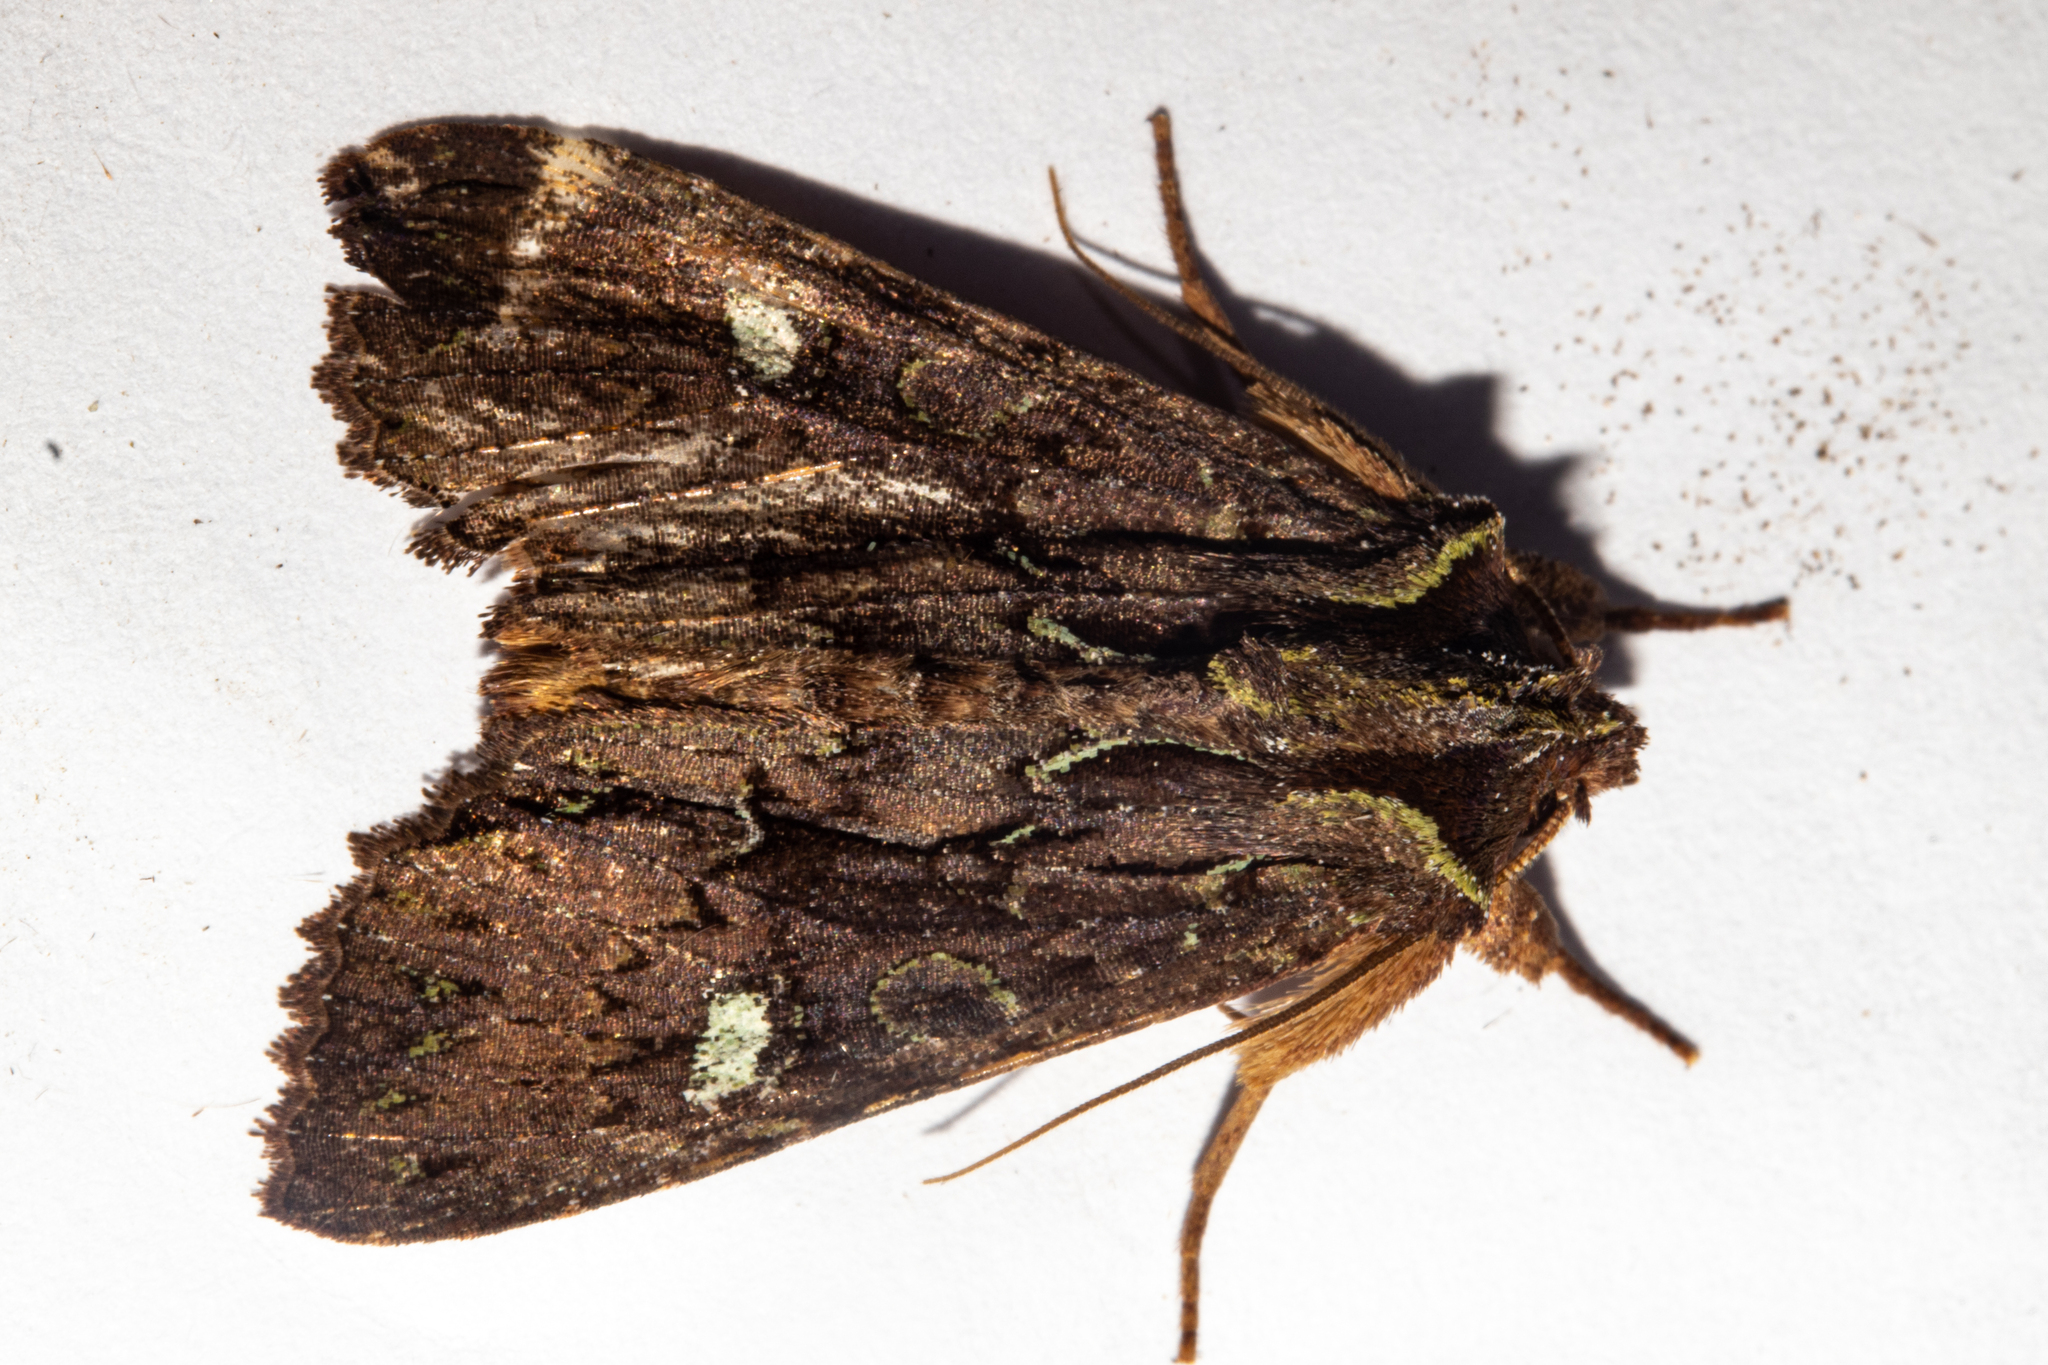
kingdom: Animalia
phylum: Arthropoda
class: Insecta
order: Lepidoptera
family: Noctuidae
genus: Meterana
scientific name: Meterana diatmeta
